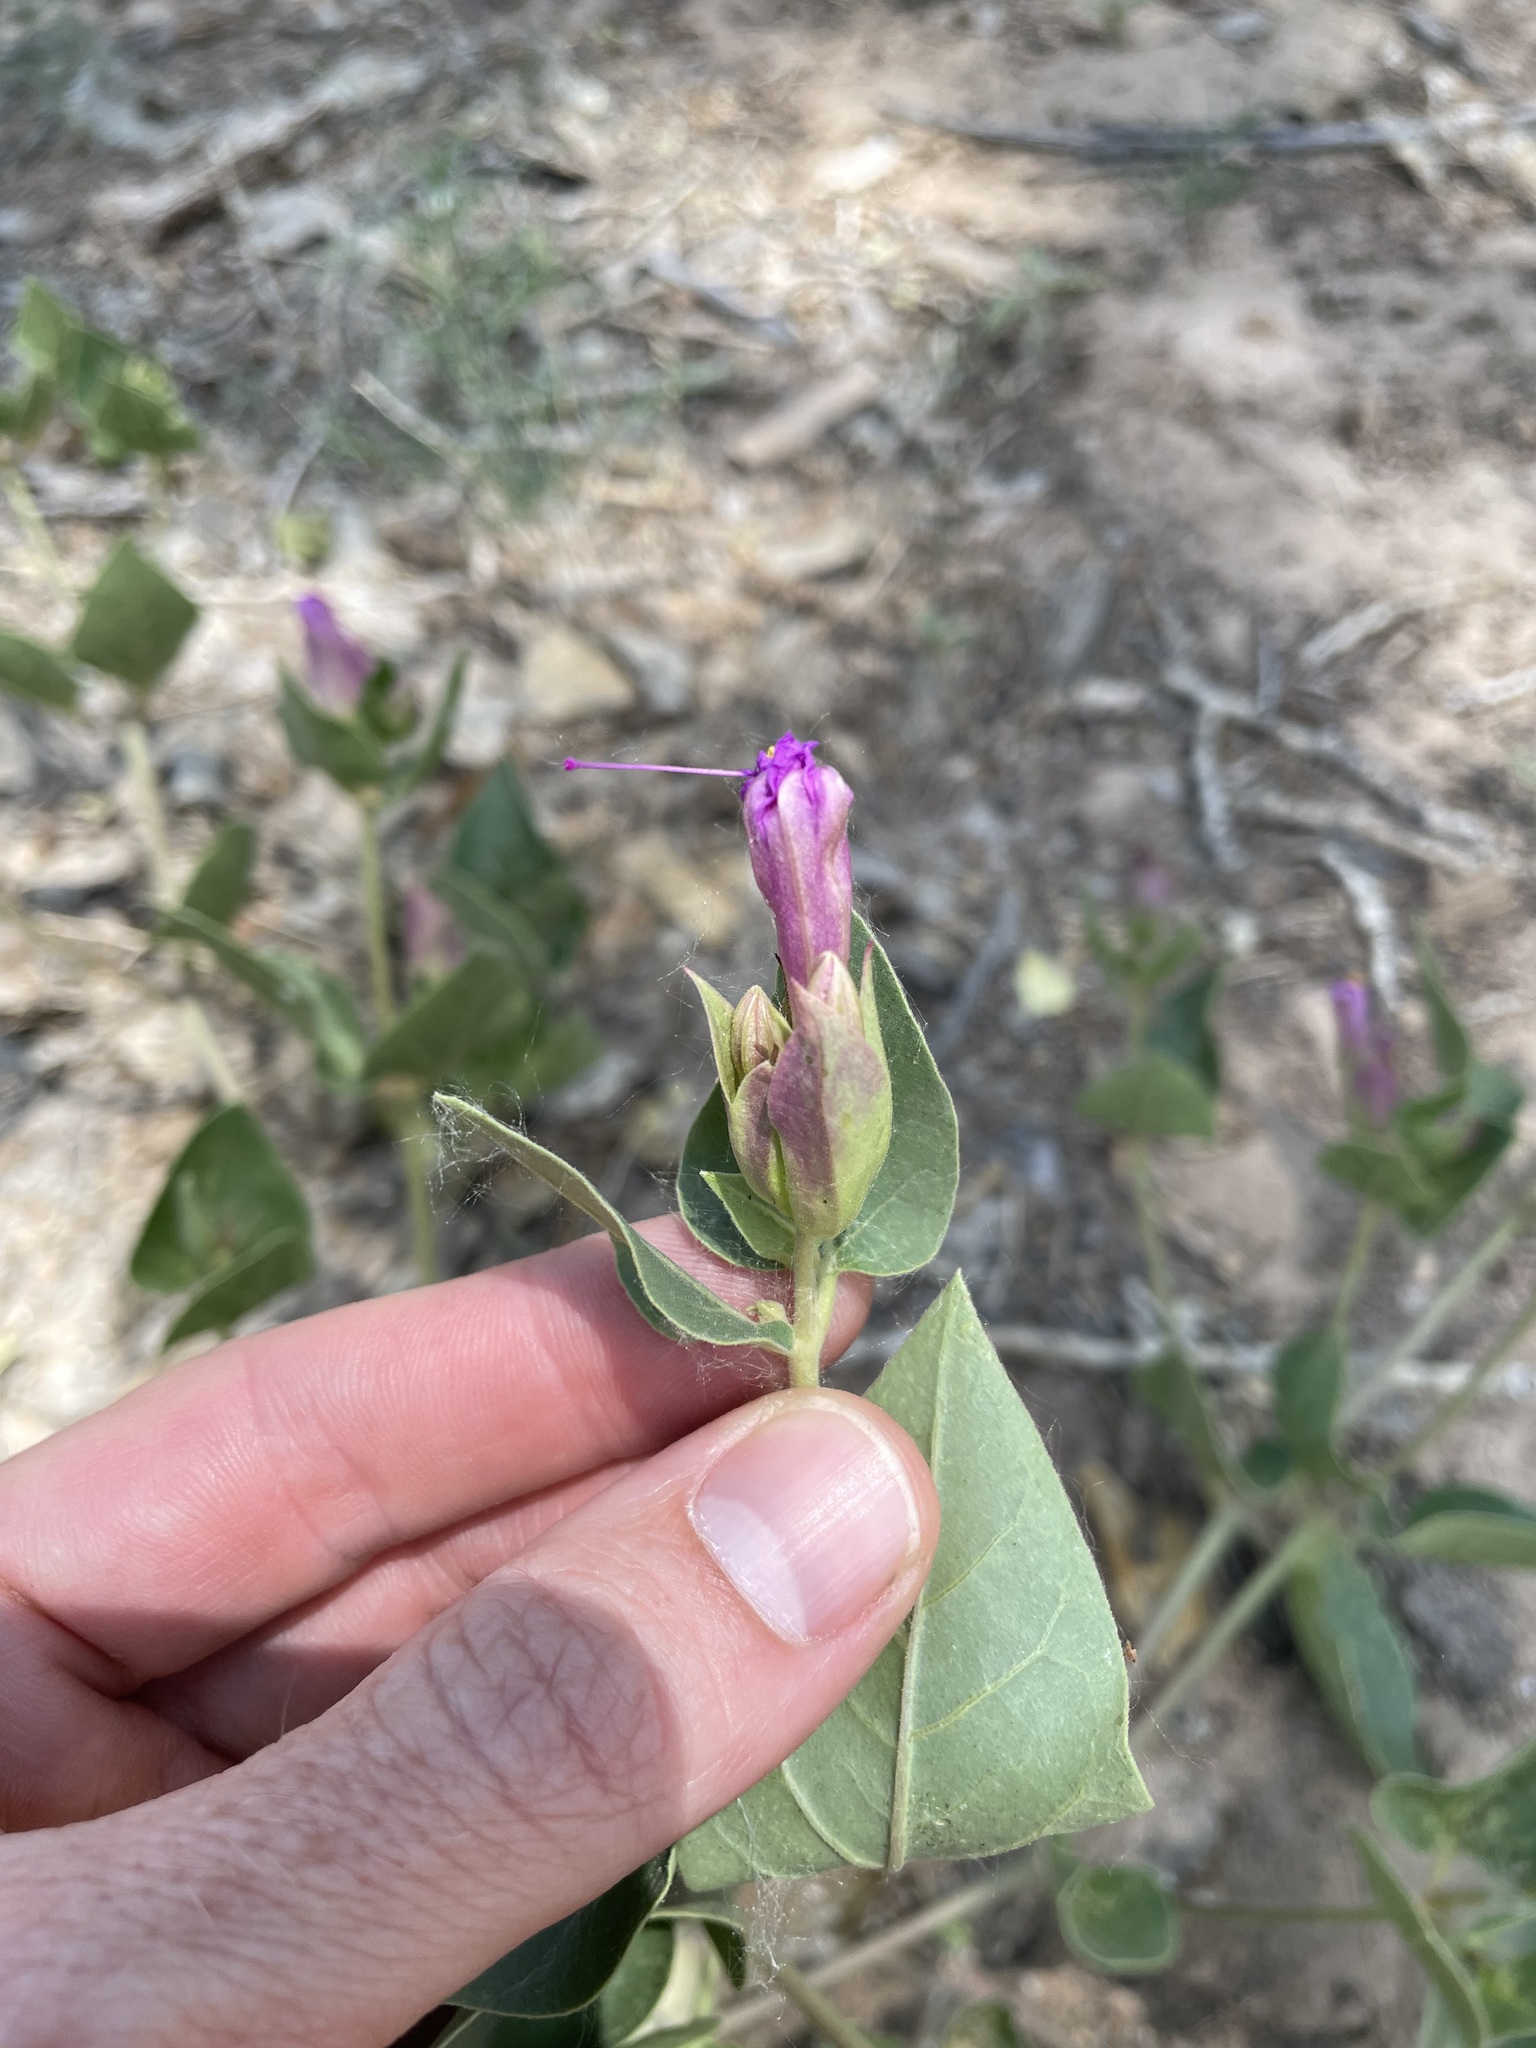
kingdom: Plantae
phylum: Tracheophyta
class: Magnoliopsida
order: Caryophyllales
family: Nyctaginaceae
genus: Mirabilis
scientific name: Mirabilis multiflora
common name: Froebel's four-o'clock
